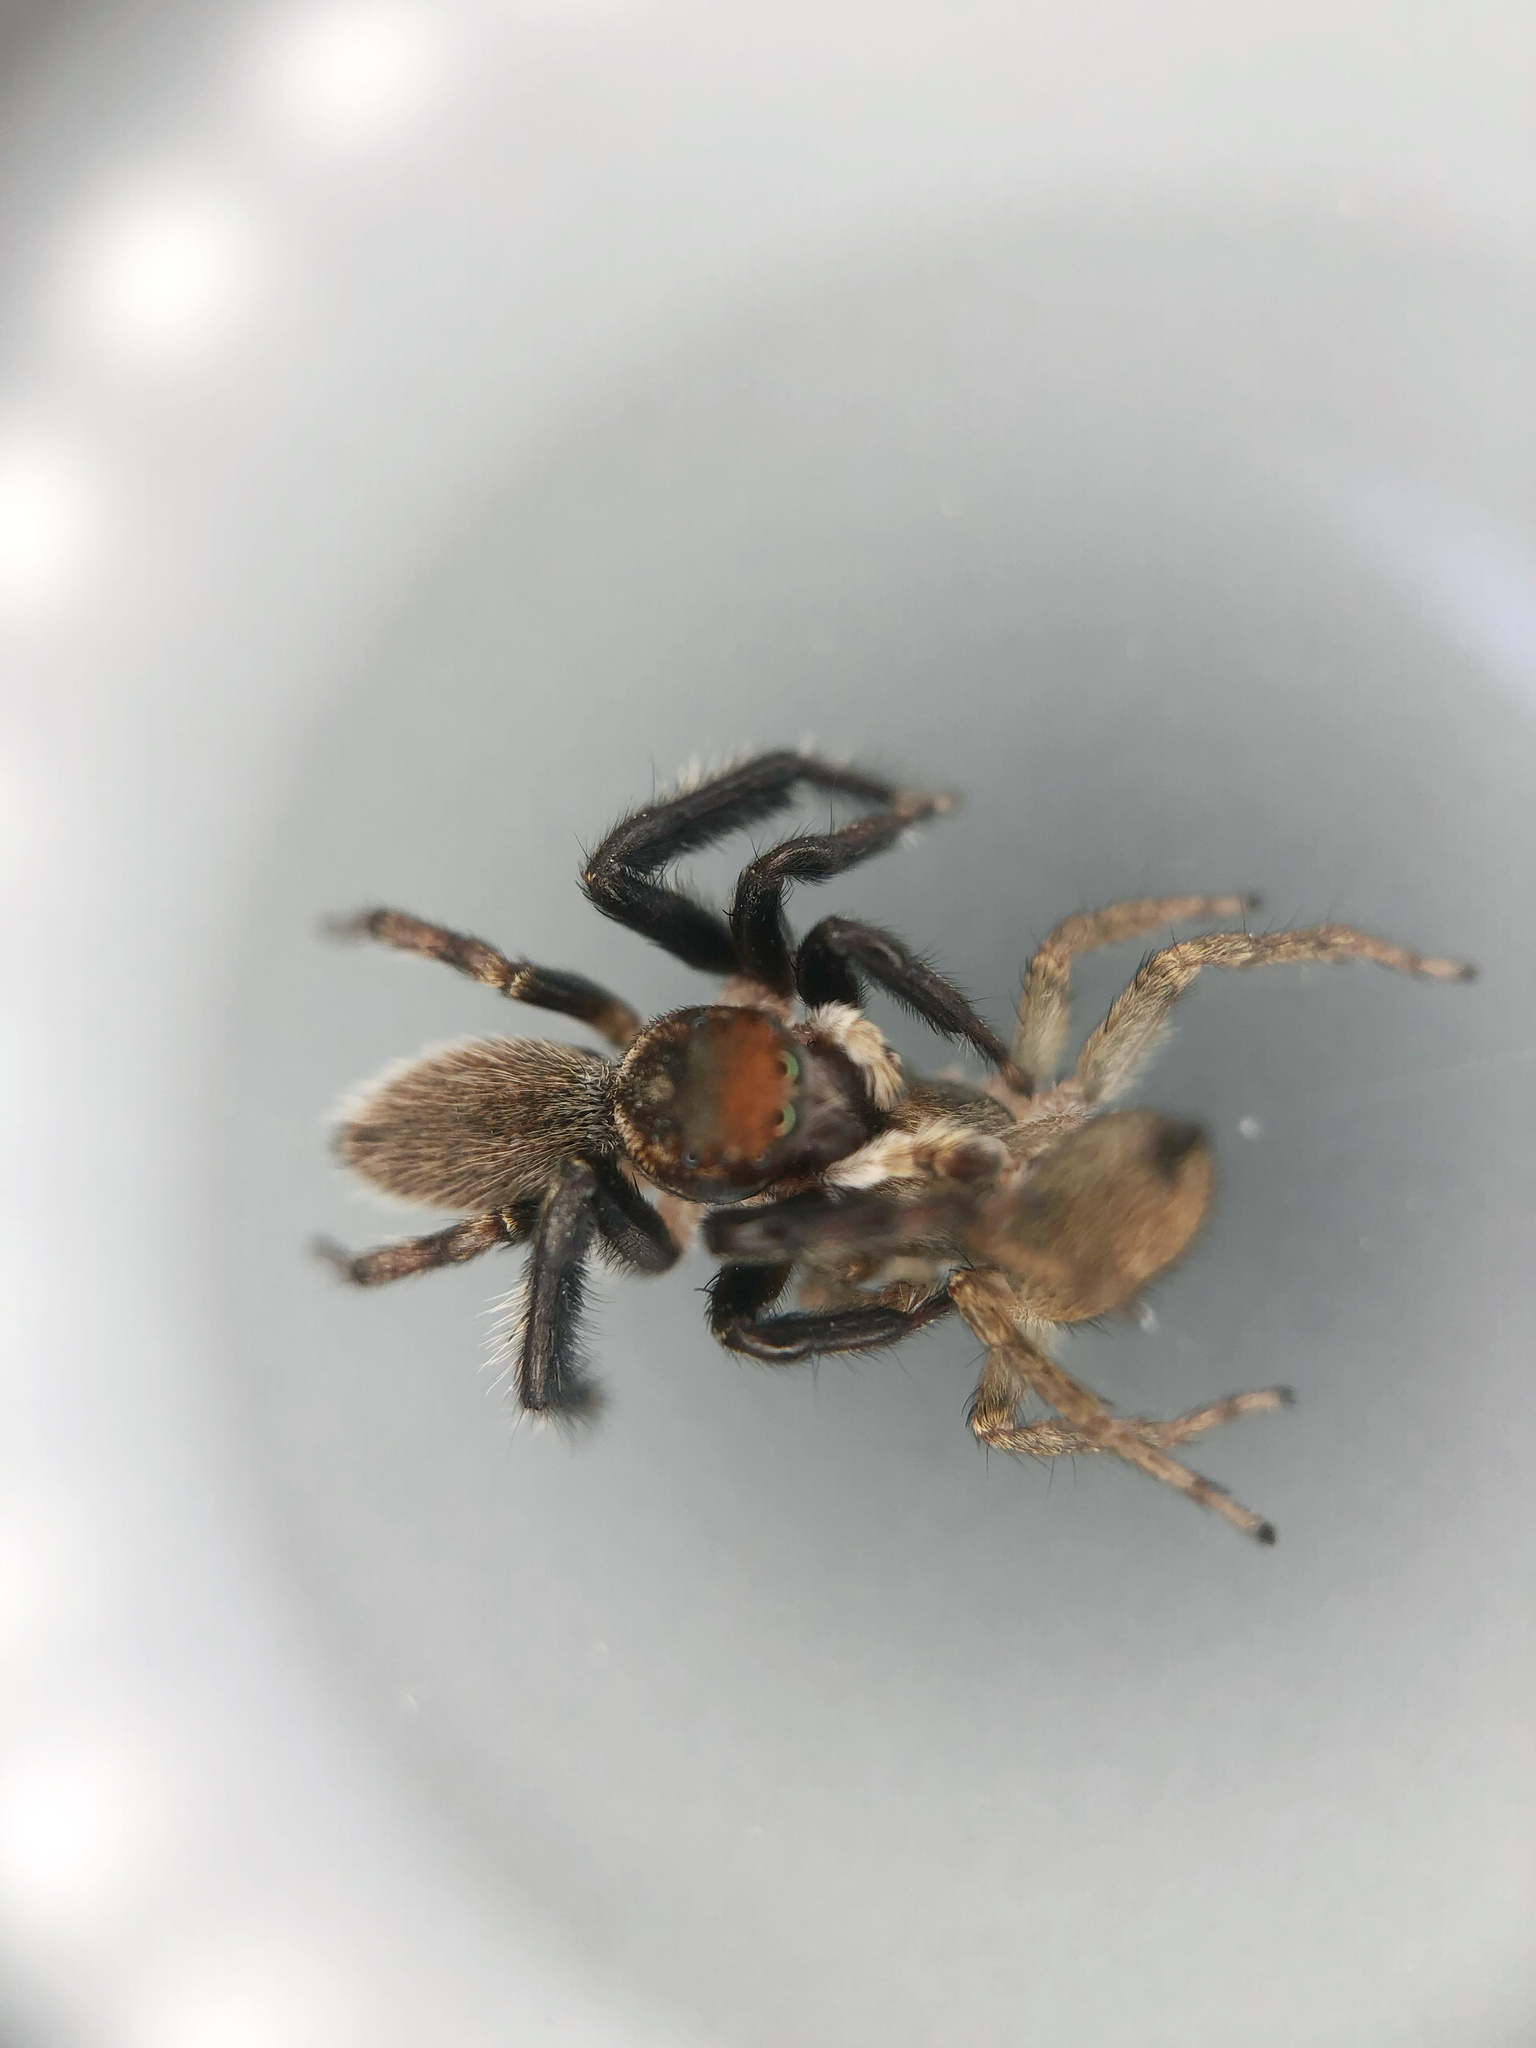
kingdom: Animalia
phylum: Arthropoda
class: Arachnida
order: Araneae
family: Salticidae
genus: Maratus
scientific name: Maratus griseus
